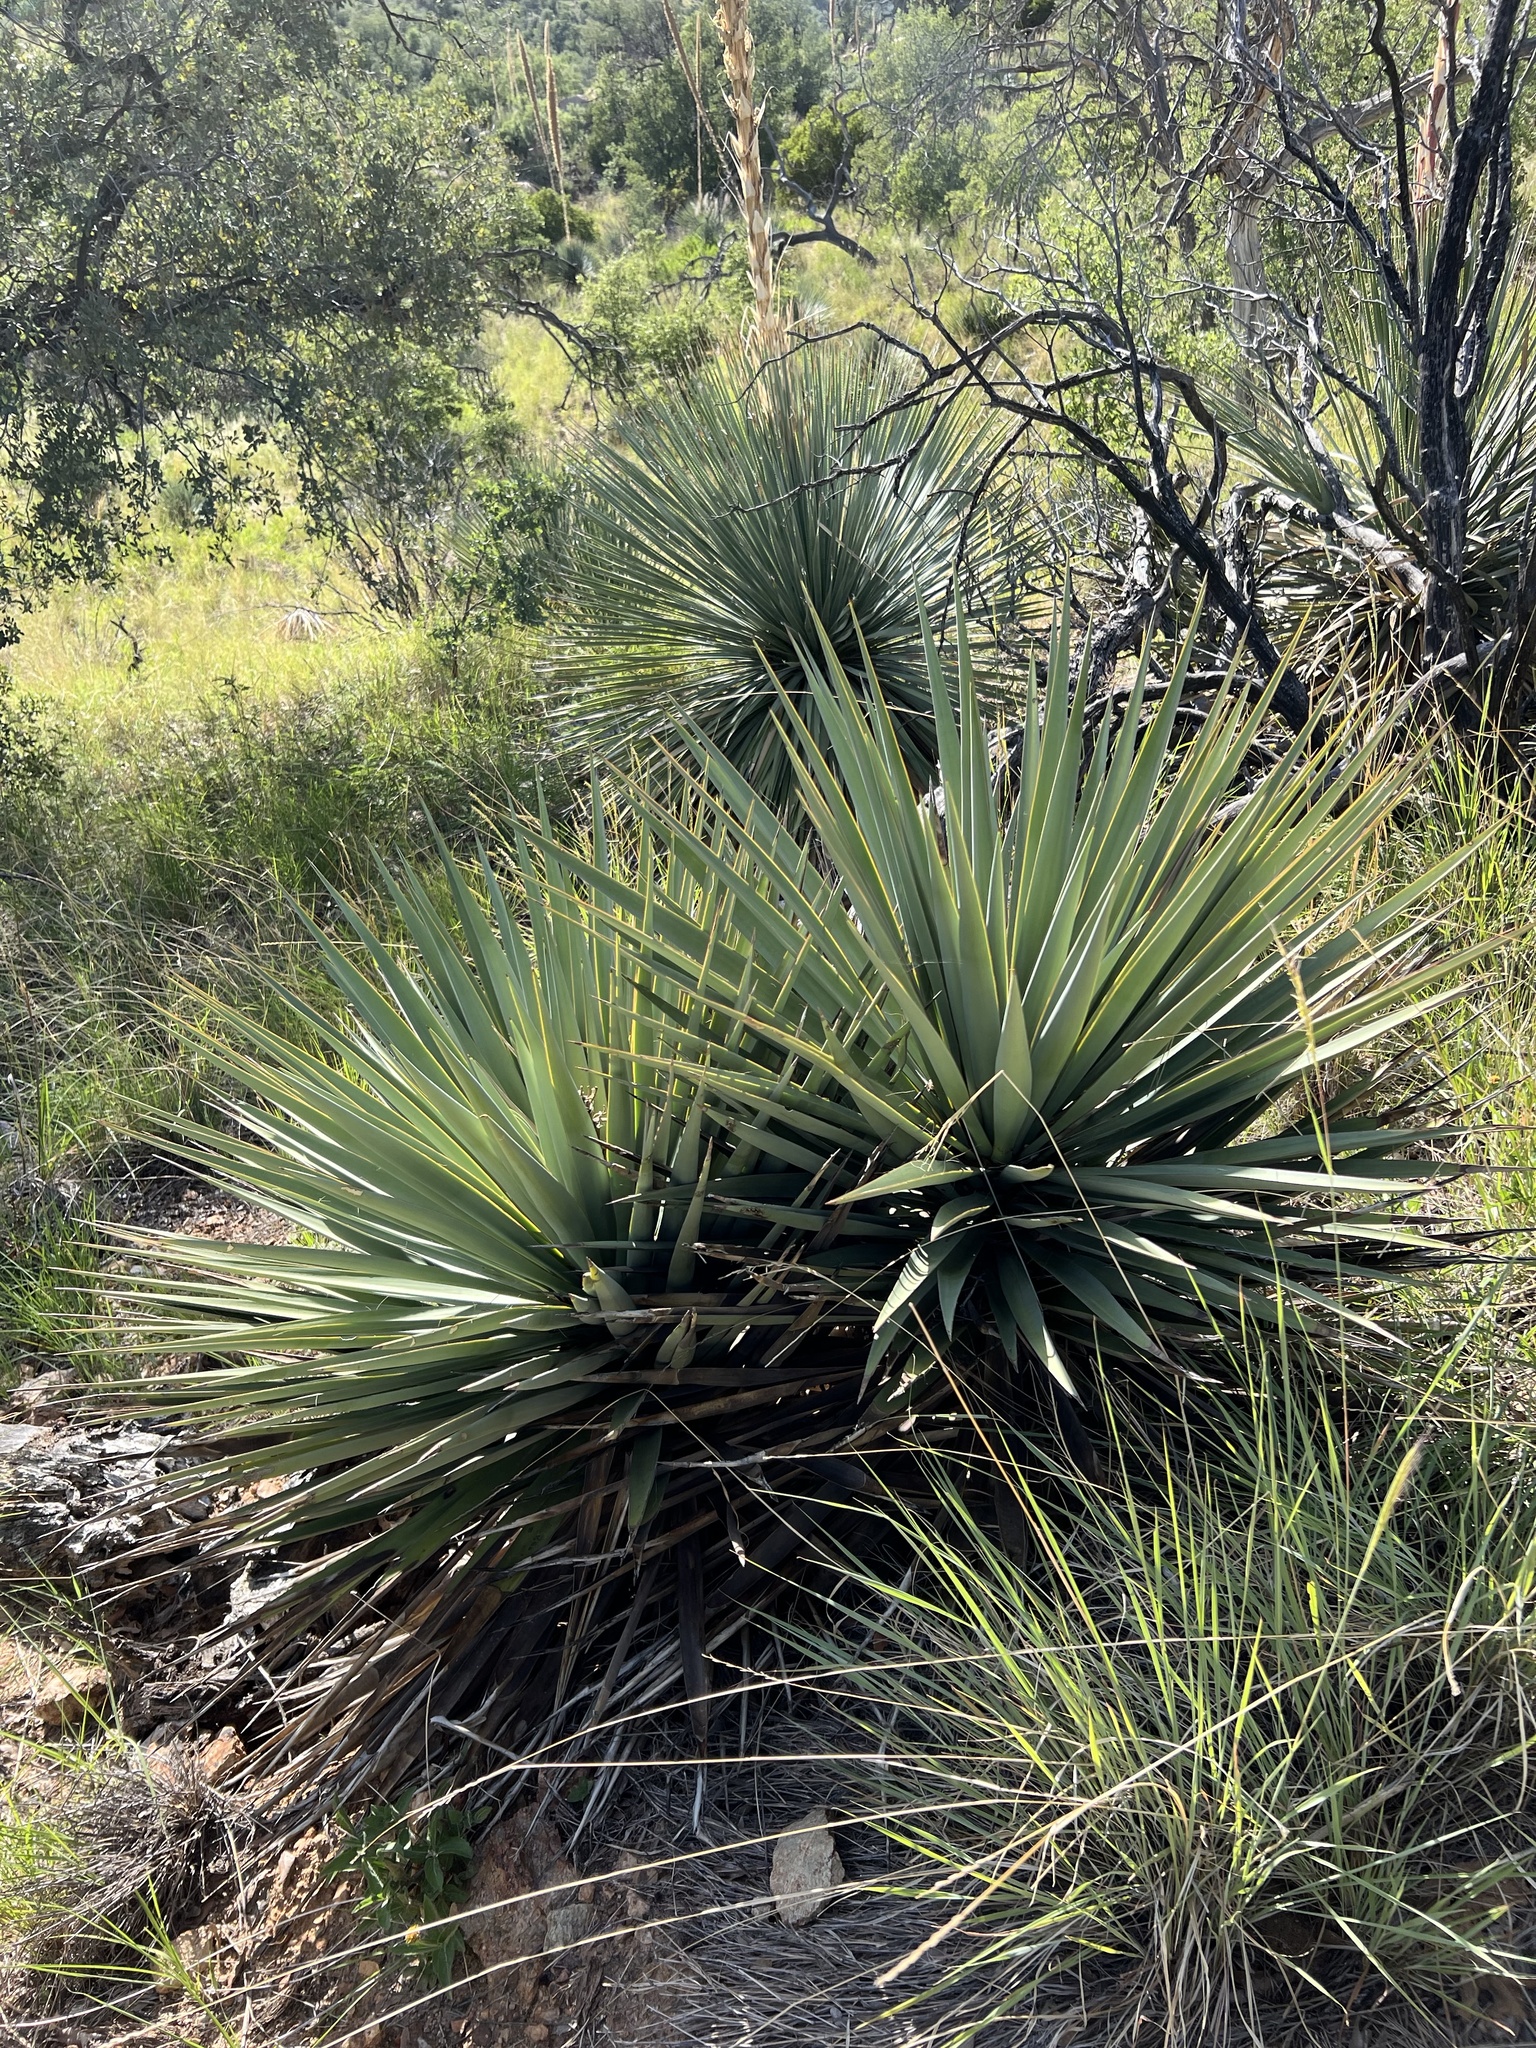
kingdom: Plantae
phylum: Tracheophyta
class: Liliopsida
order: Asparagales
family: Asparagaceae
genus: Yucca
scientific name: Yucca schottii
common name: Hoary yucca
